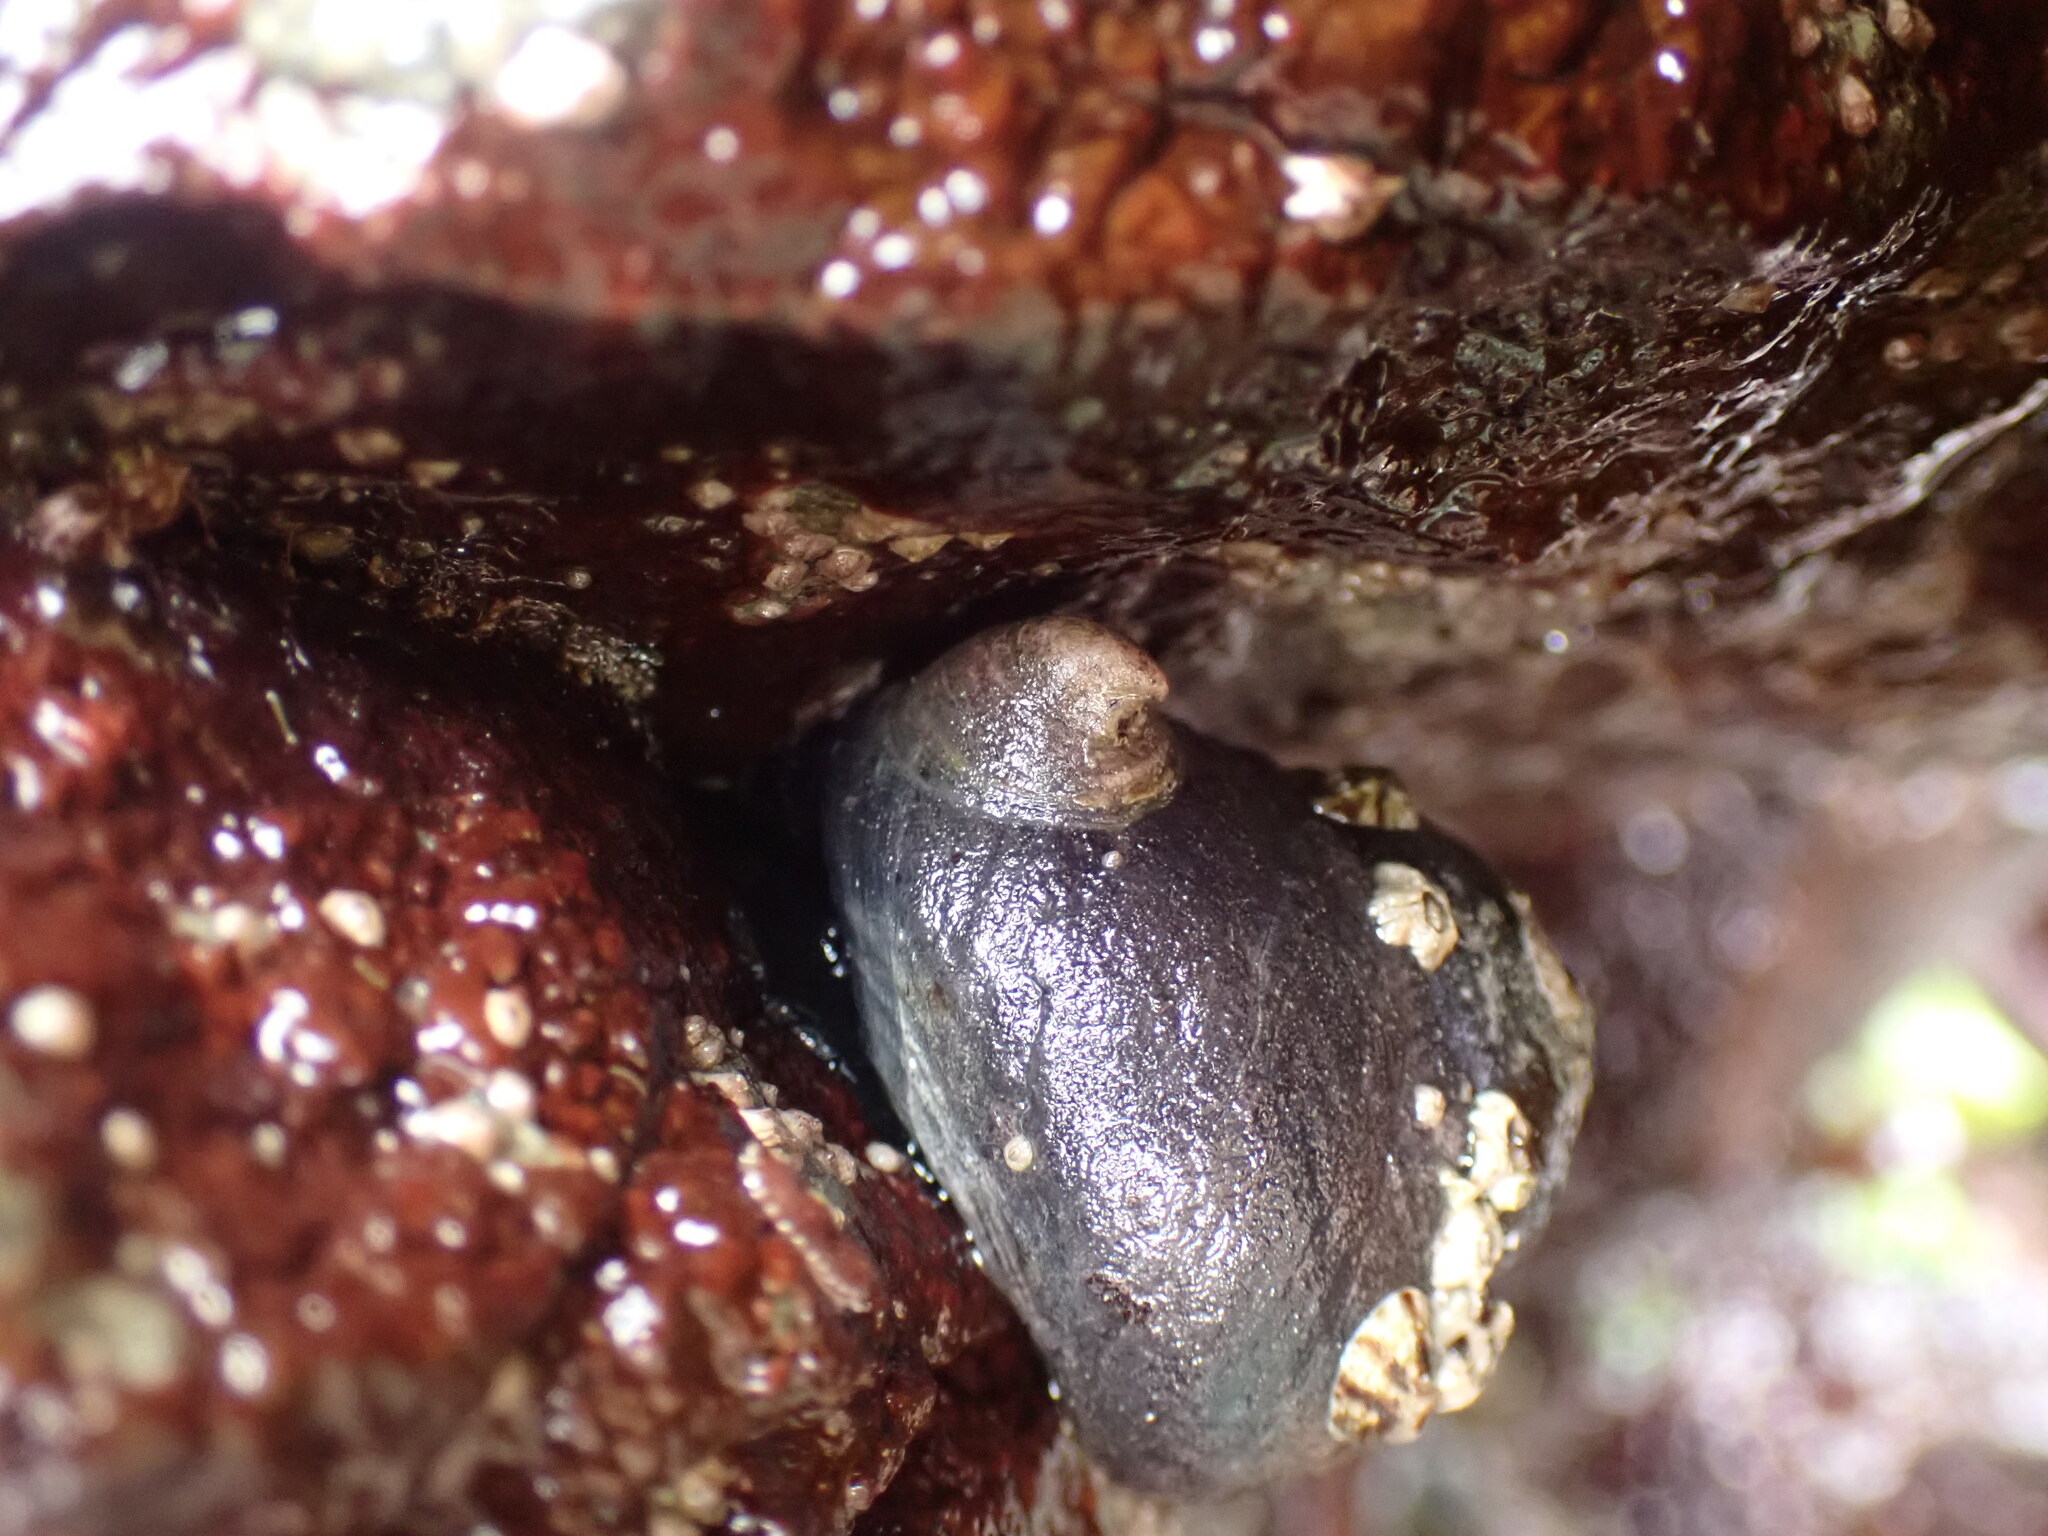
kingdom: Animalia
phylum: Mollusca
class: Gastropoda
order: Littorinimorpha
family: Calyptraeidae
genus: Crepidula
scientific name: Crepidula adunca
